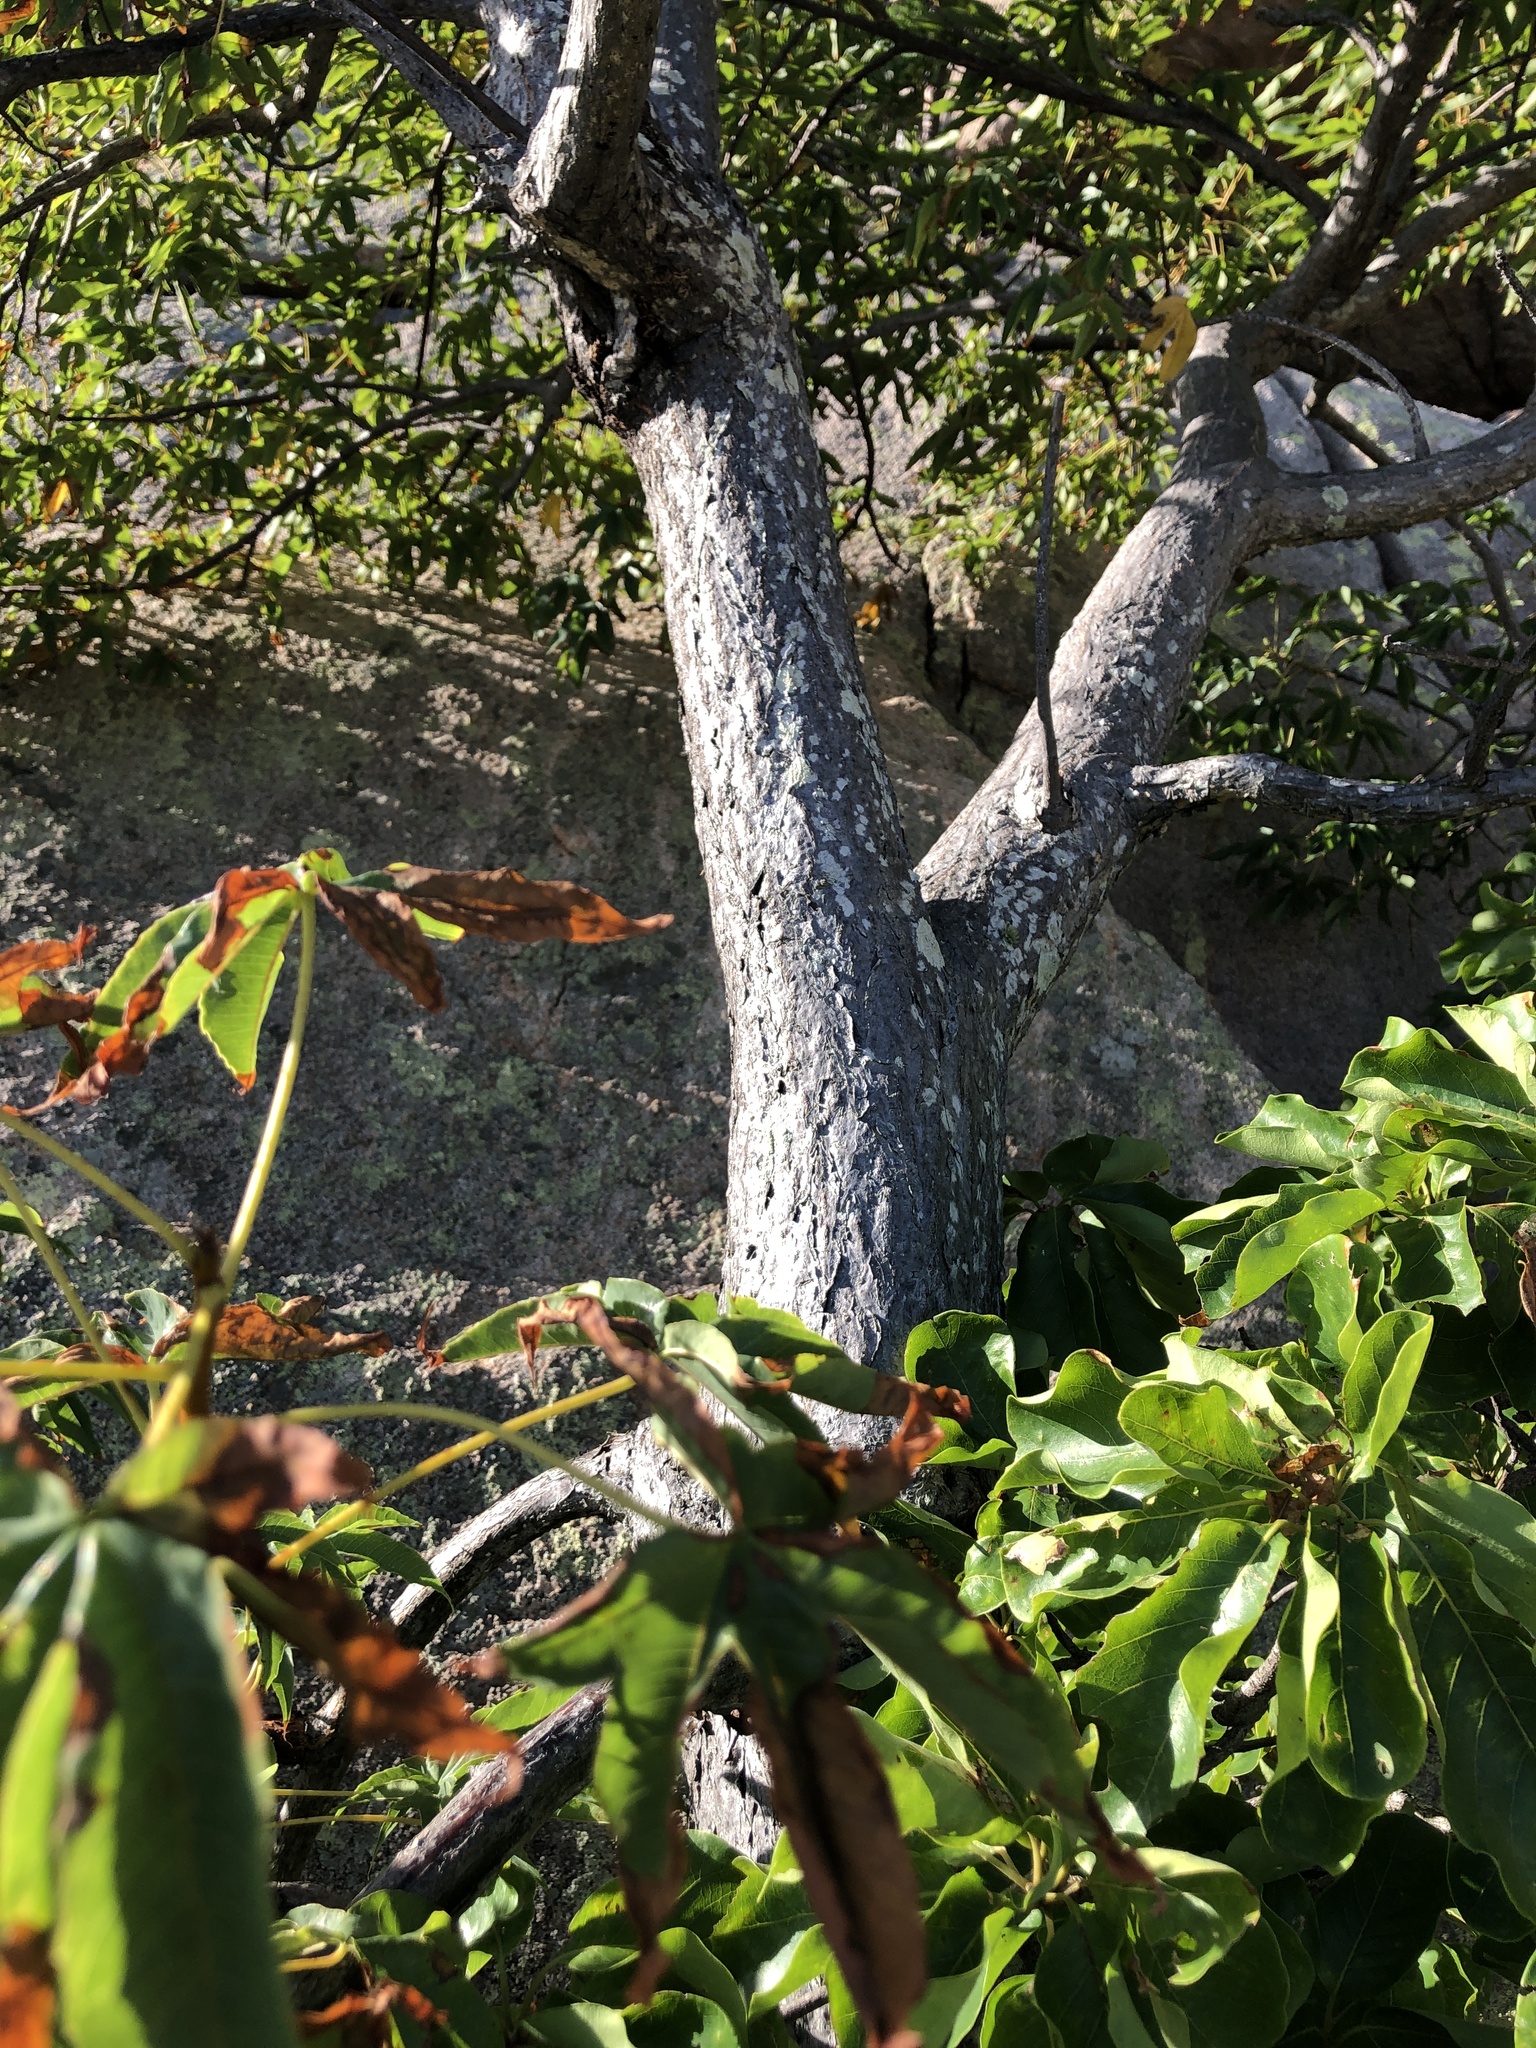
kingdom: Plantae
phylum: Tracheophyta
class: Magnoliopsida
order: Malvales
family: Cochlospermaceae
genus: Cochlospermum
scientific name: Cochlospermum gillivraei
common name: Cottontree
